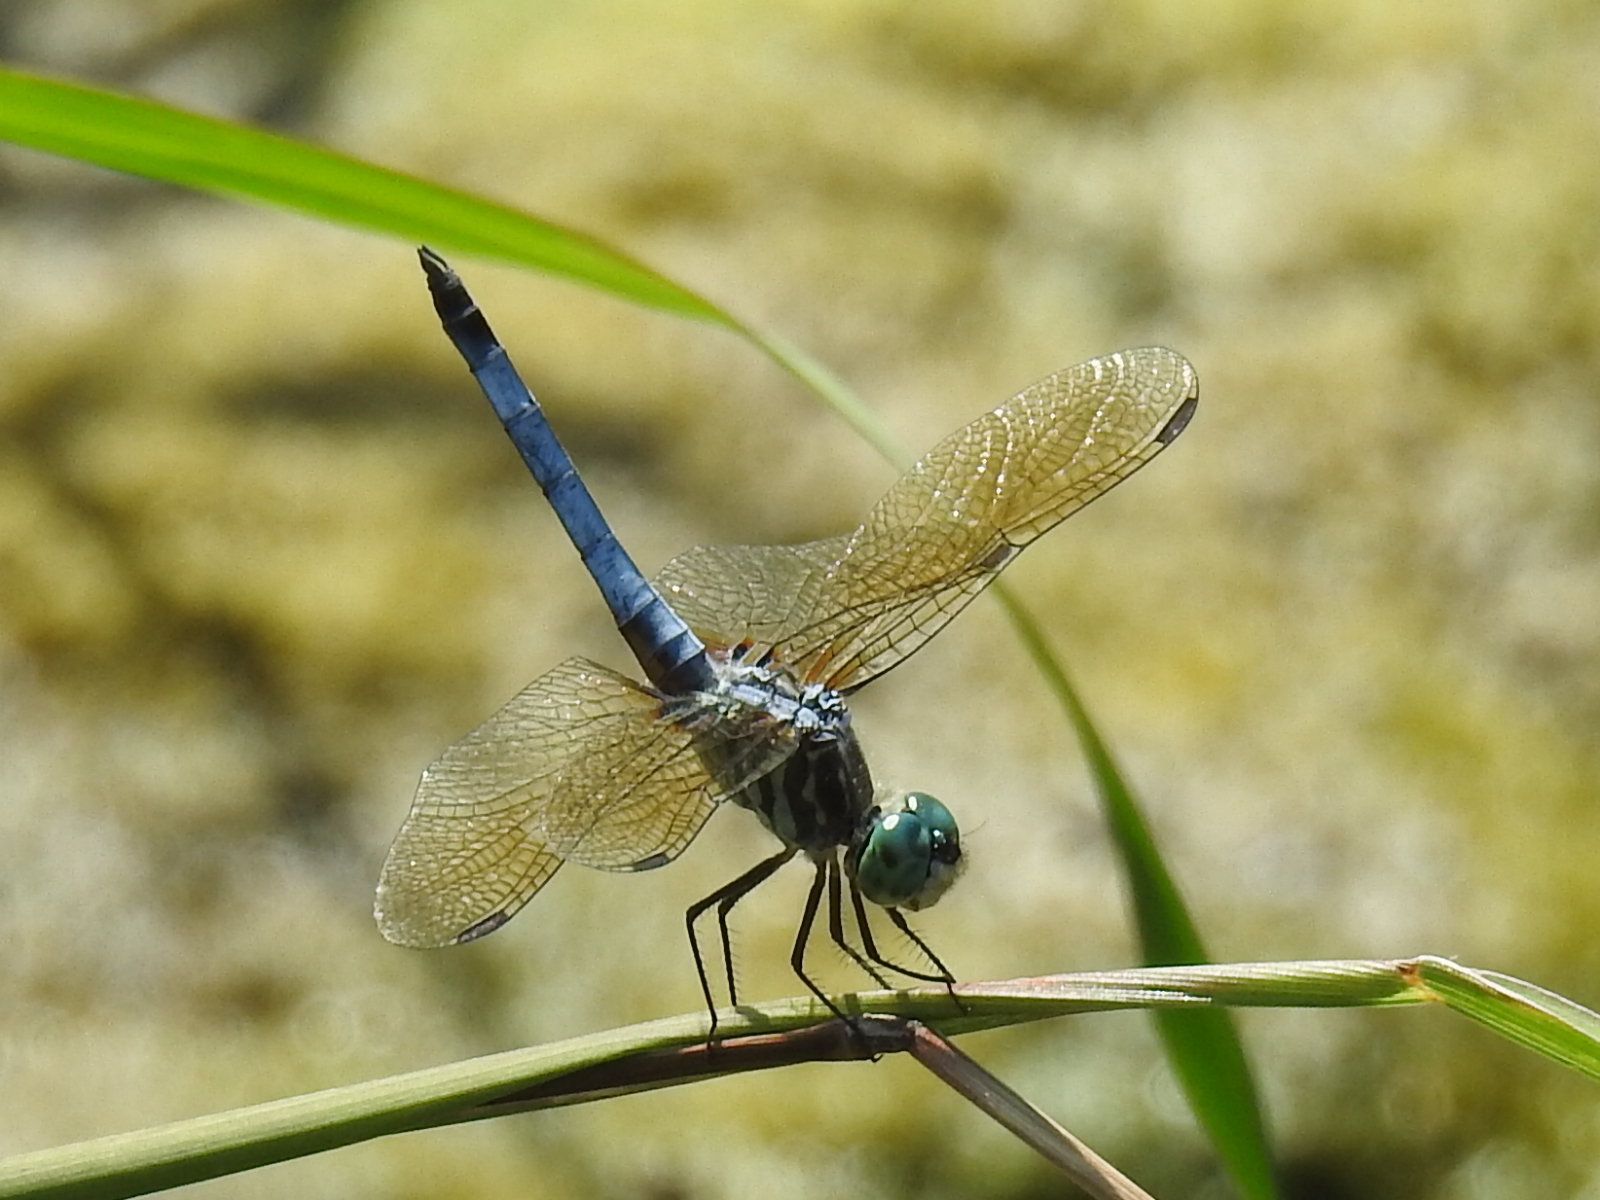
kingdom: Animalia
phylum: Arthropoda
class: Insecta
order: Odonata
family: Libellulidae
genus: Pachydiplax
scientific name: Pachydiplax longipennis
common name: Blue dasher
